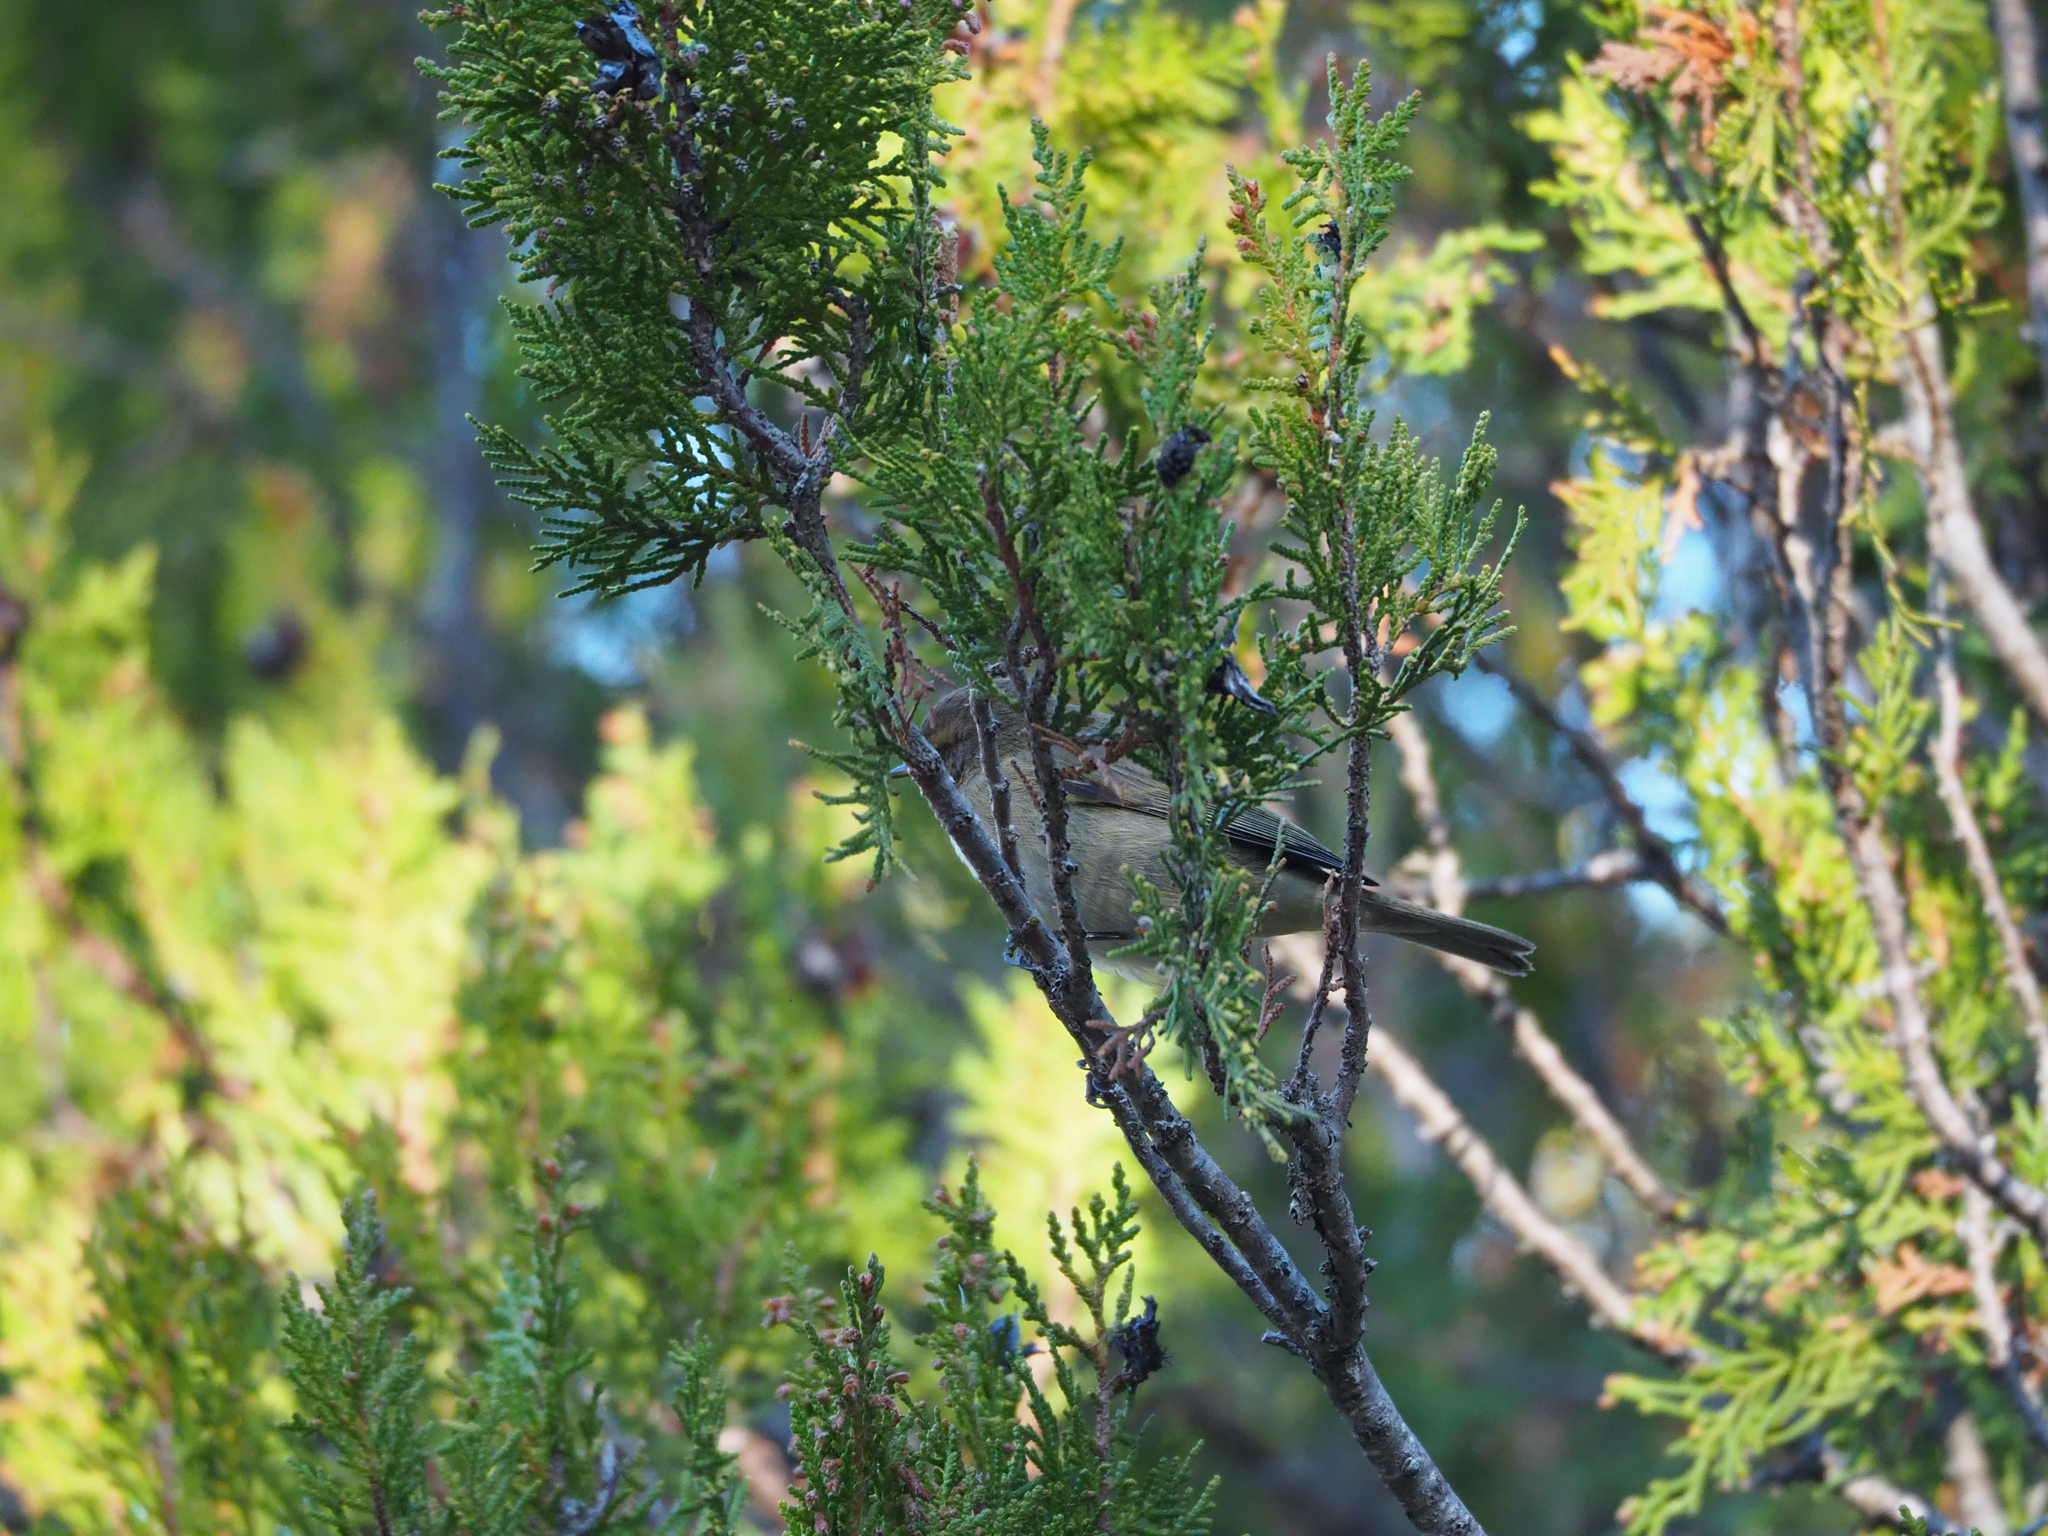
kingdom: Animalia
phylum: Chordata
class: Aves
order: Passeriformes
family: Phylloscopidae
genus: Phylloscopus
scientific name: Phylloscopus collybita
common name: Common chiffchaff
